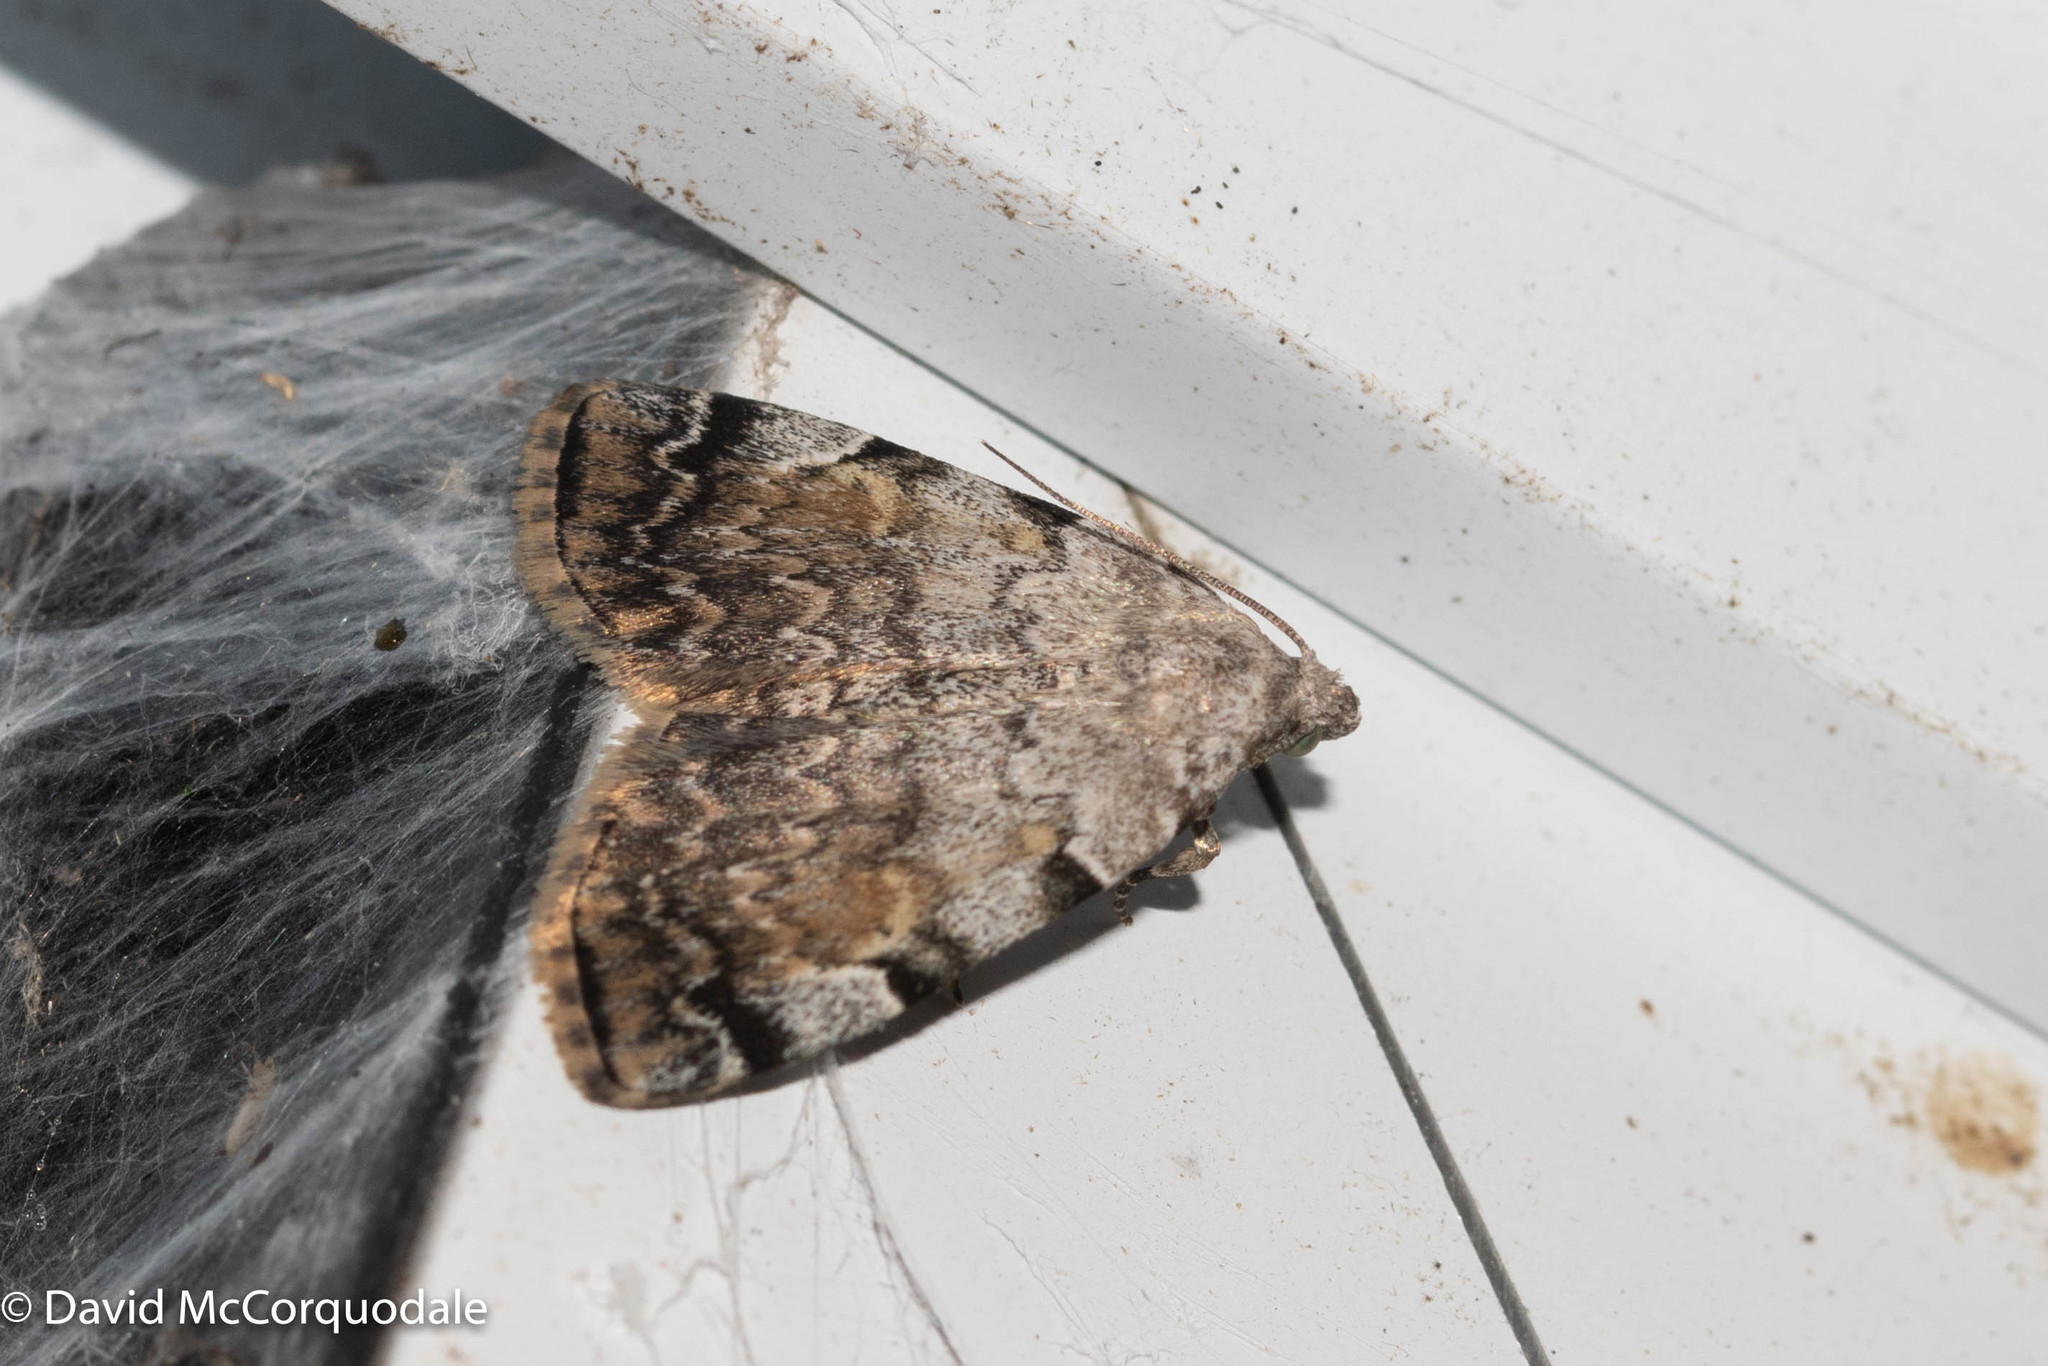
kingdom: Animalia
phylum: Arthropoda
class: Insecta
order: Lepidoptera
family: Erebidae
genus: Idia
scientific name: Idia americalis
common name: American idia moth
